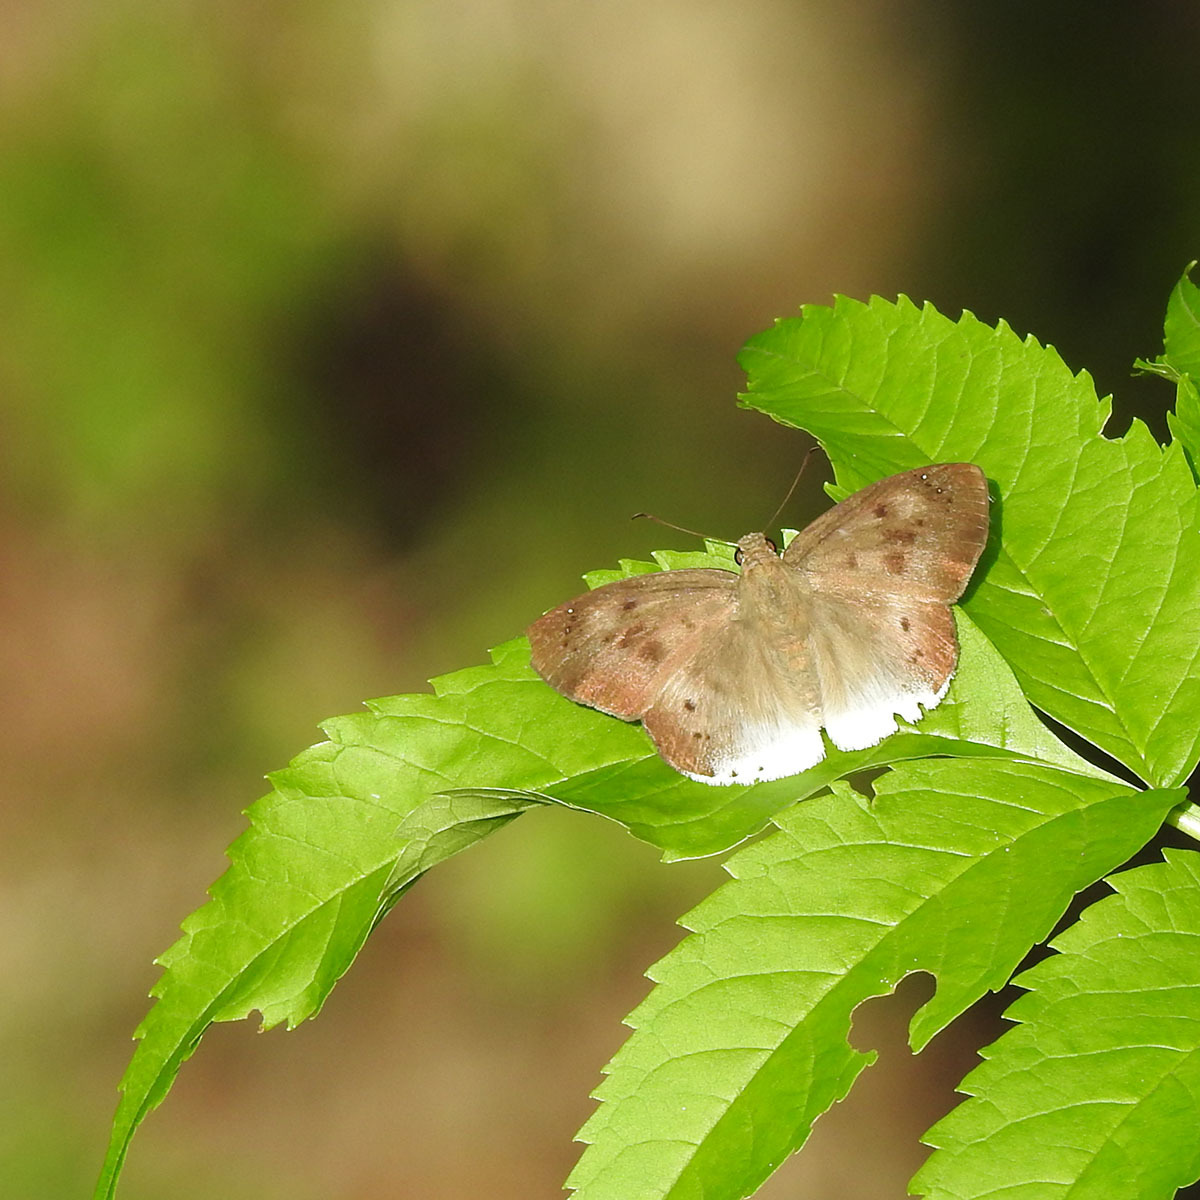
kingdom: Animalia
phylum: Arthropoda
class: Insecta
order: Lepidoptera
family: Hesperiidae
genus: Tagiades
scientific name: Tagiades japetus
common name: Pied flat
